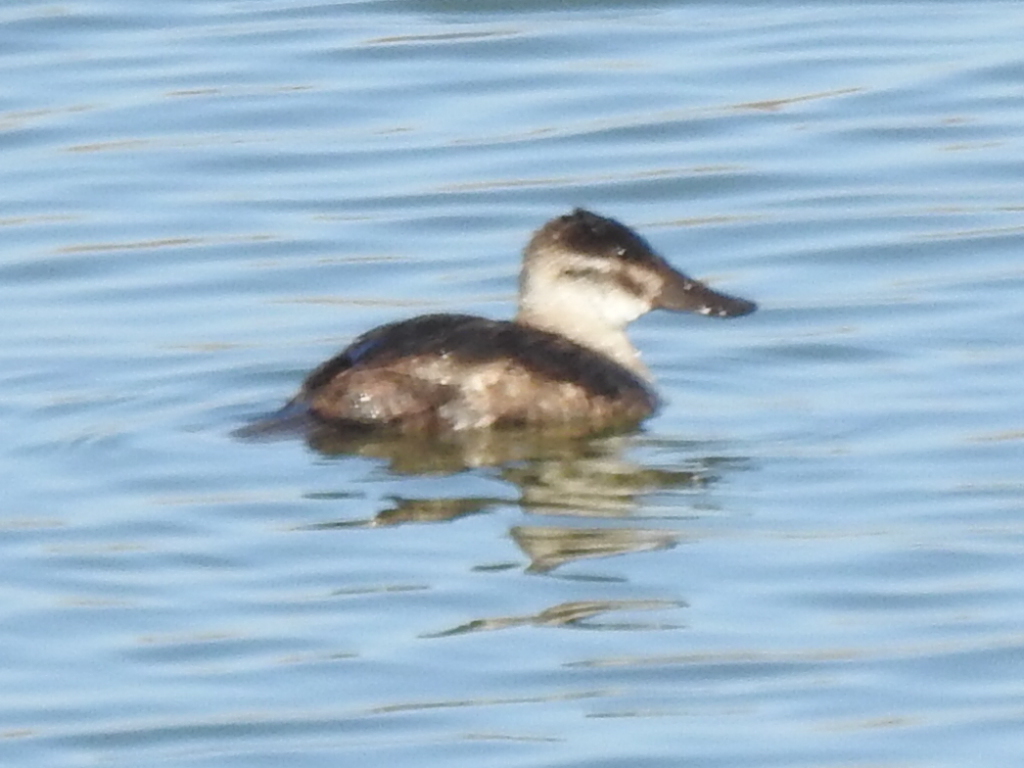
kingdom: Animalia
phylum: Chordata
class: Aves
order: Anseriformes
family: Anatidae
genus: Oxyura
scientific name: Oxyura jamaicensis
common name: Ruddy duck
